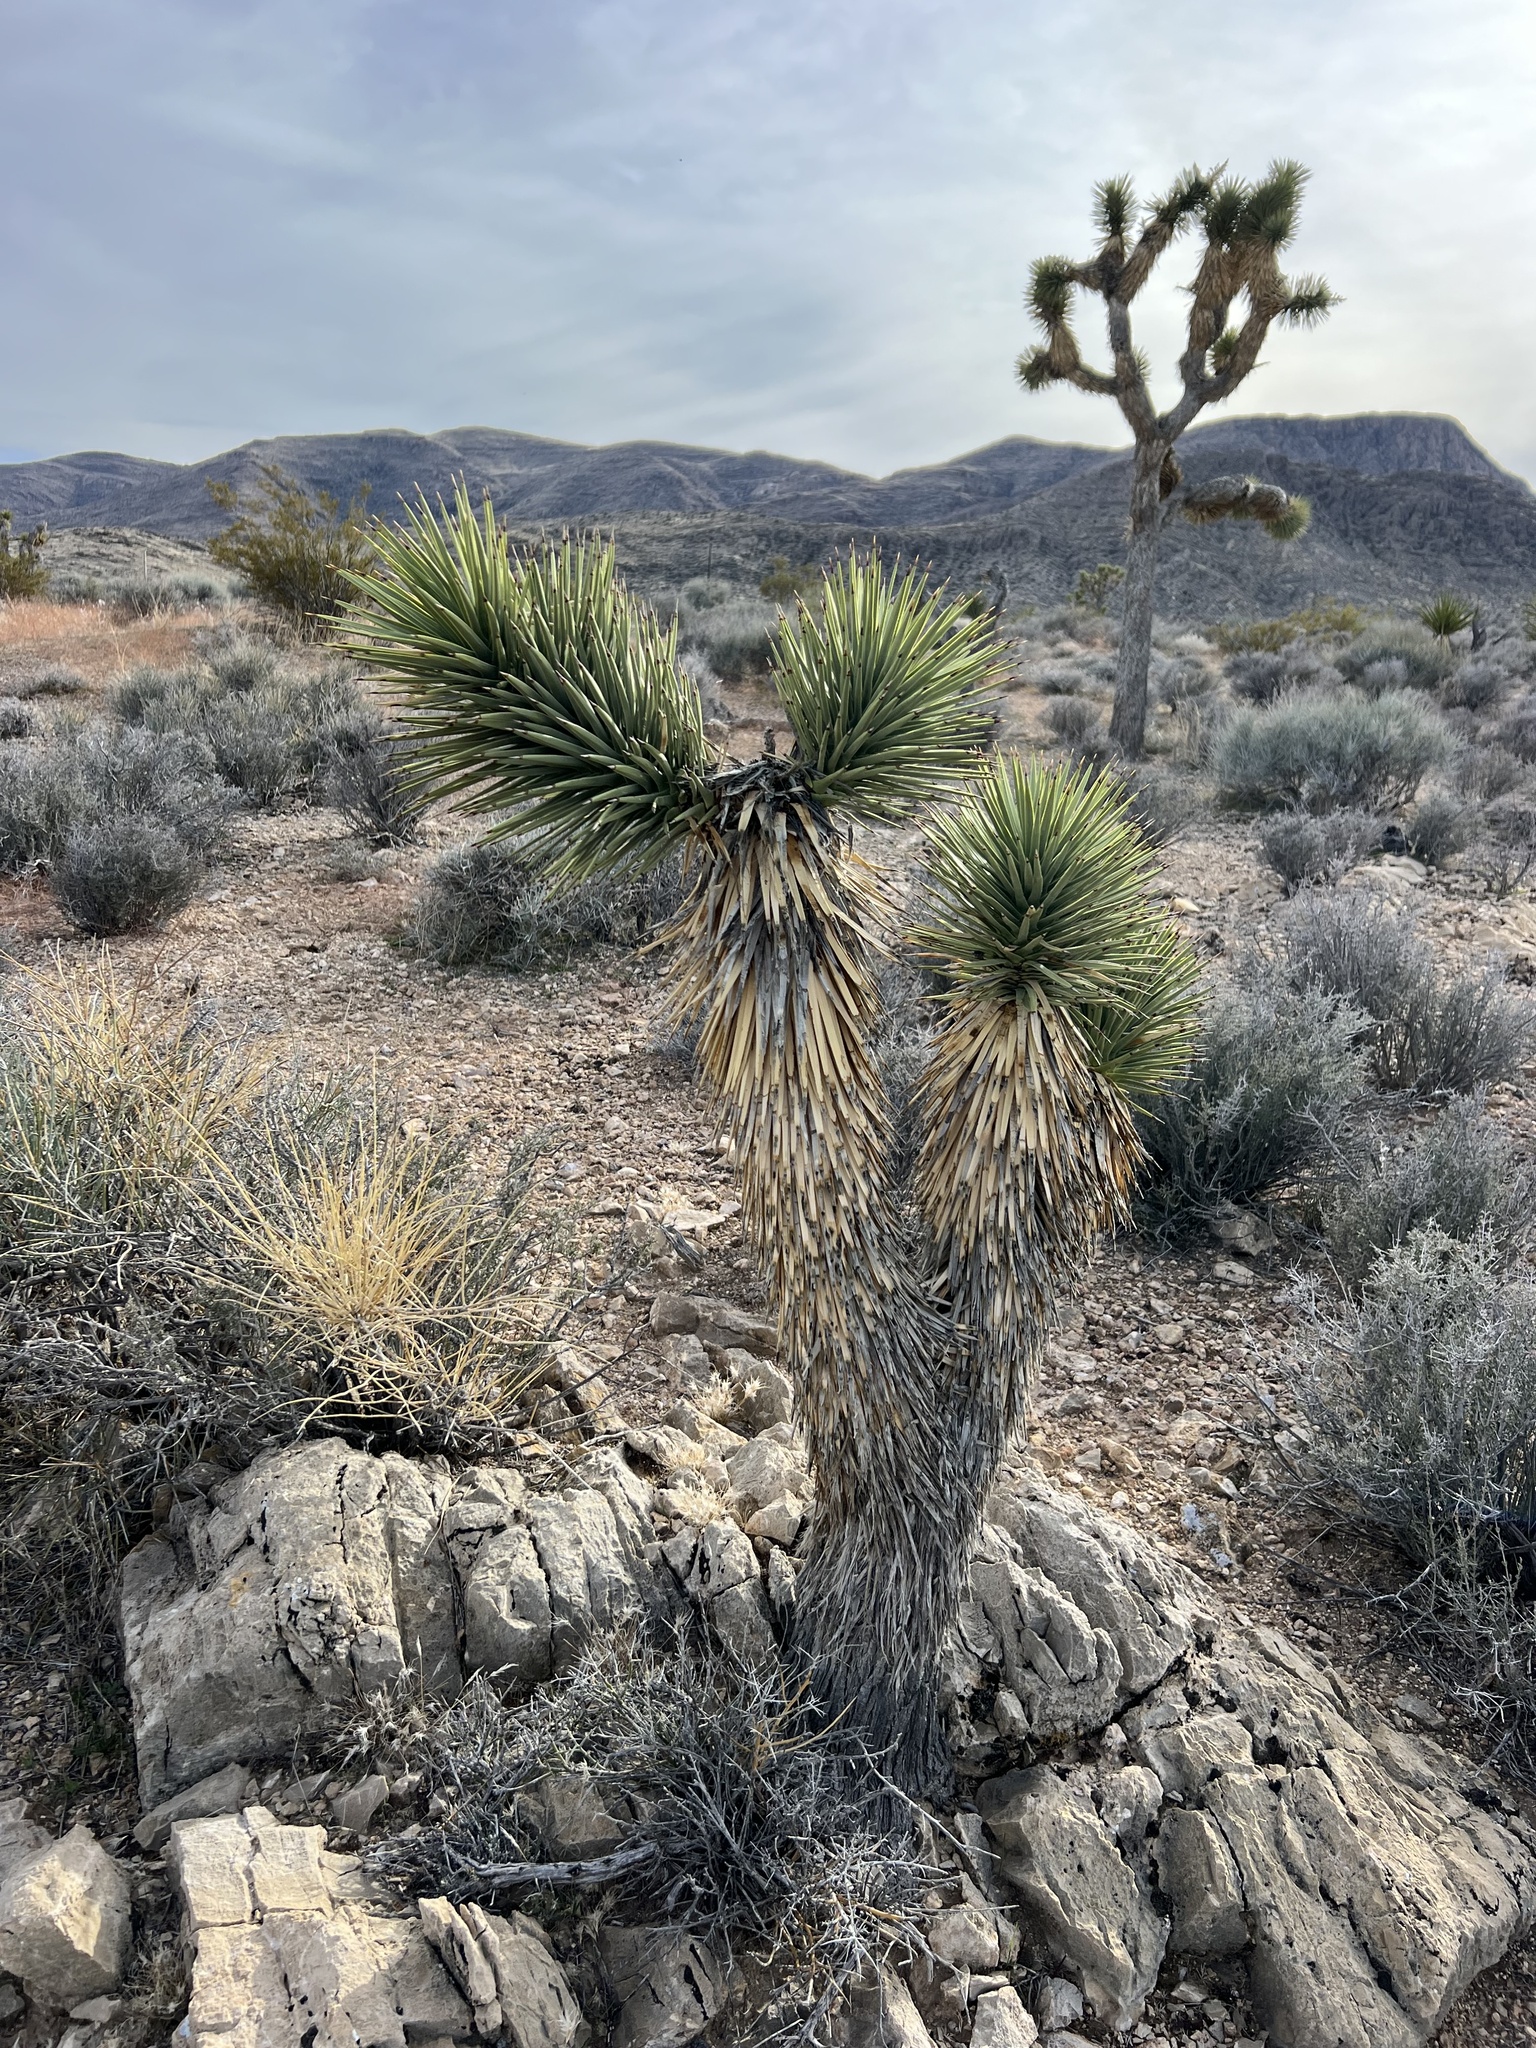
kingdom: Plantae
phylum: Tracheophyta
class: Liliopsida
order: Asparagales
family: Asparagaceae
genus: Yucca
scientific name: Yucca brevifolia
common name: Joshua tree
